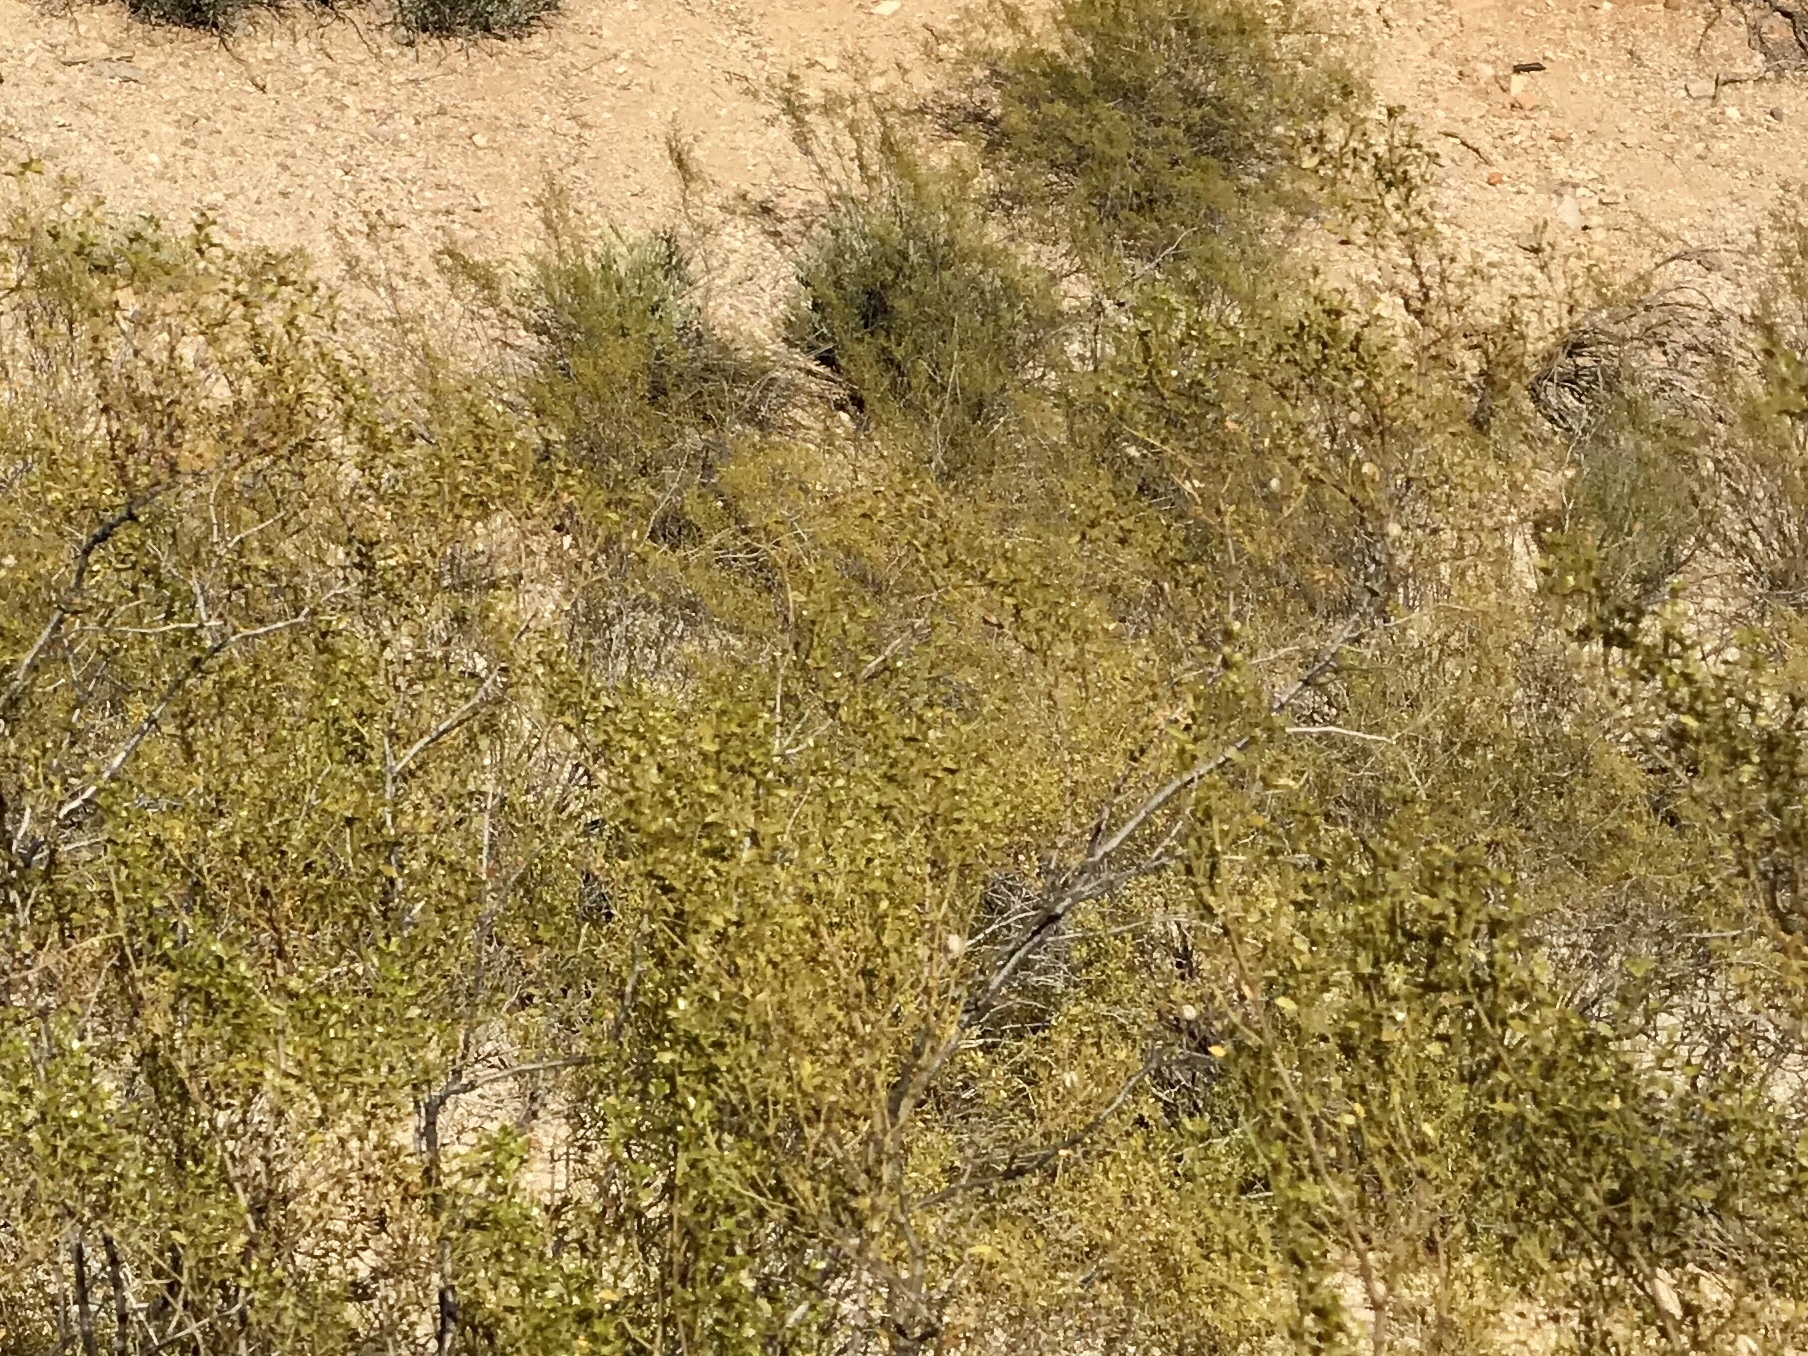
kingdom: Plantae
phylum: Tracheophyta
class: Magnoliopsida
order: Zygophyllales
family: Zygophyllaceae
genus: Larrea
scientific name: Larrea tridentata
